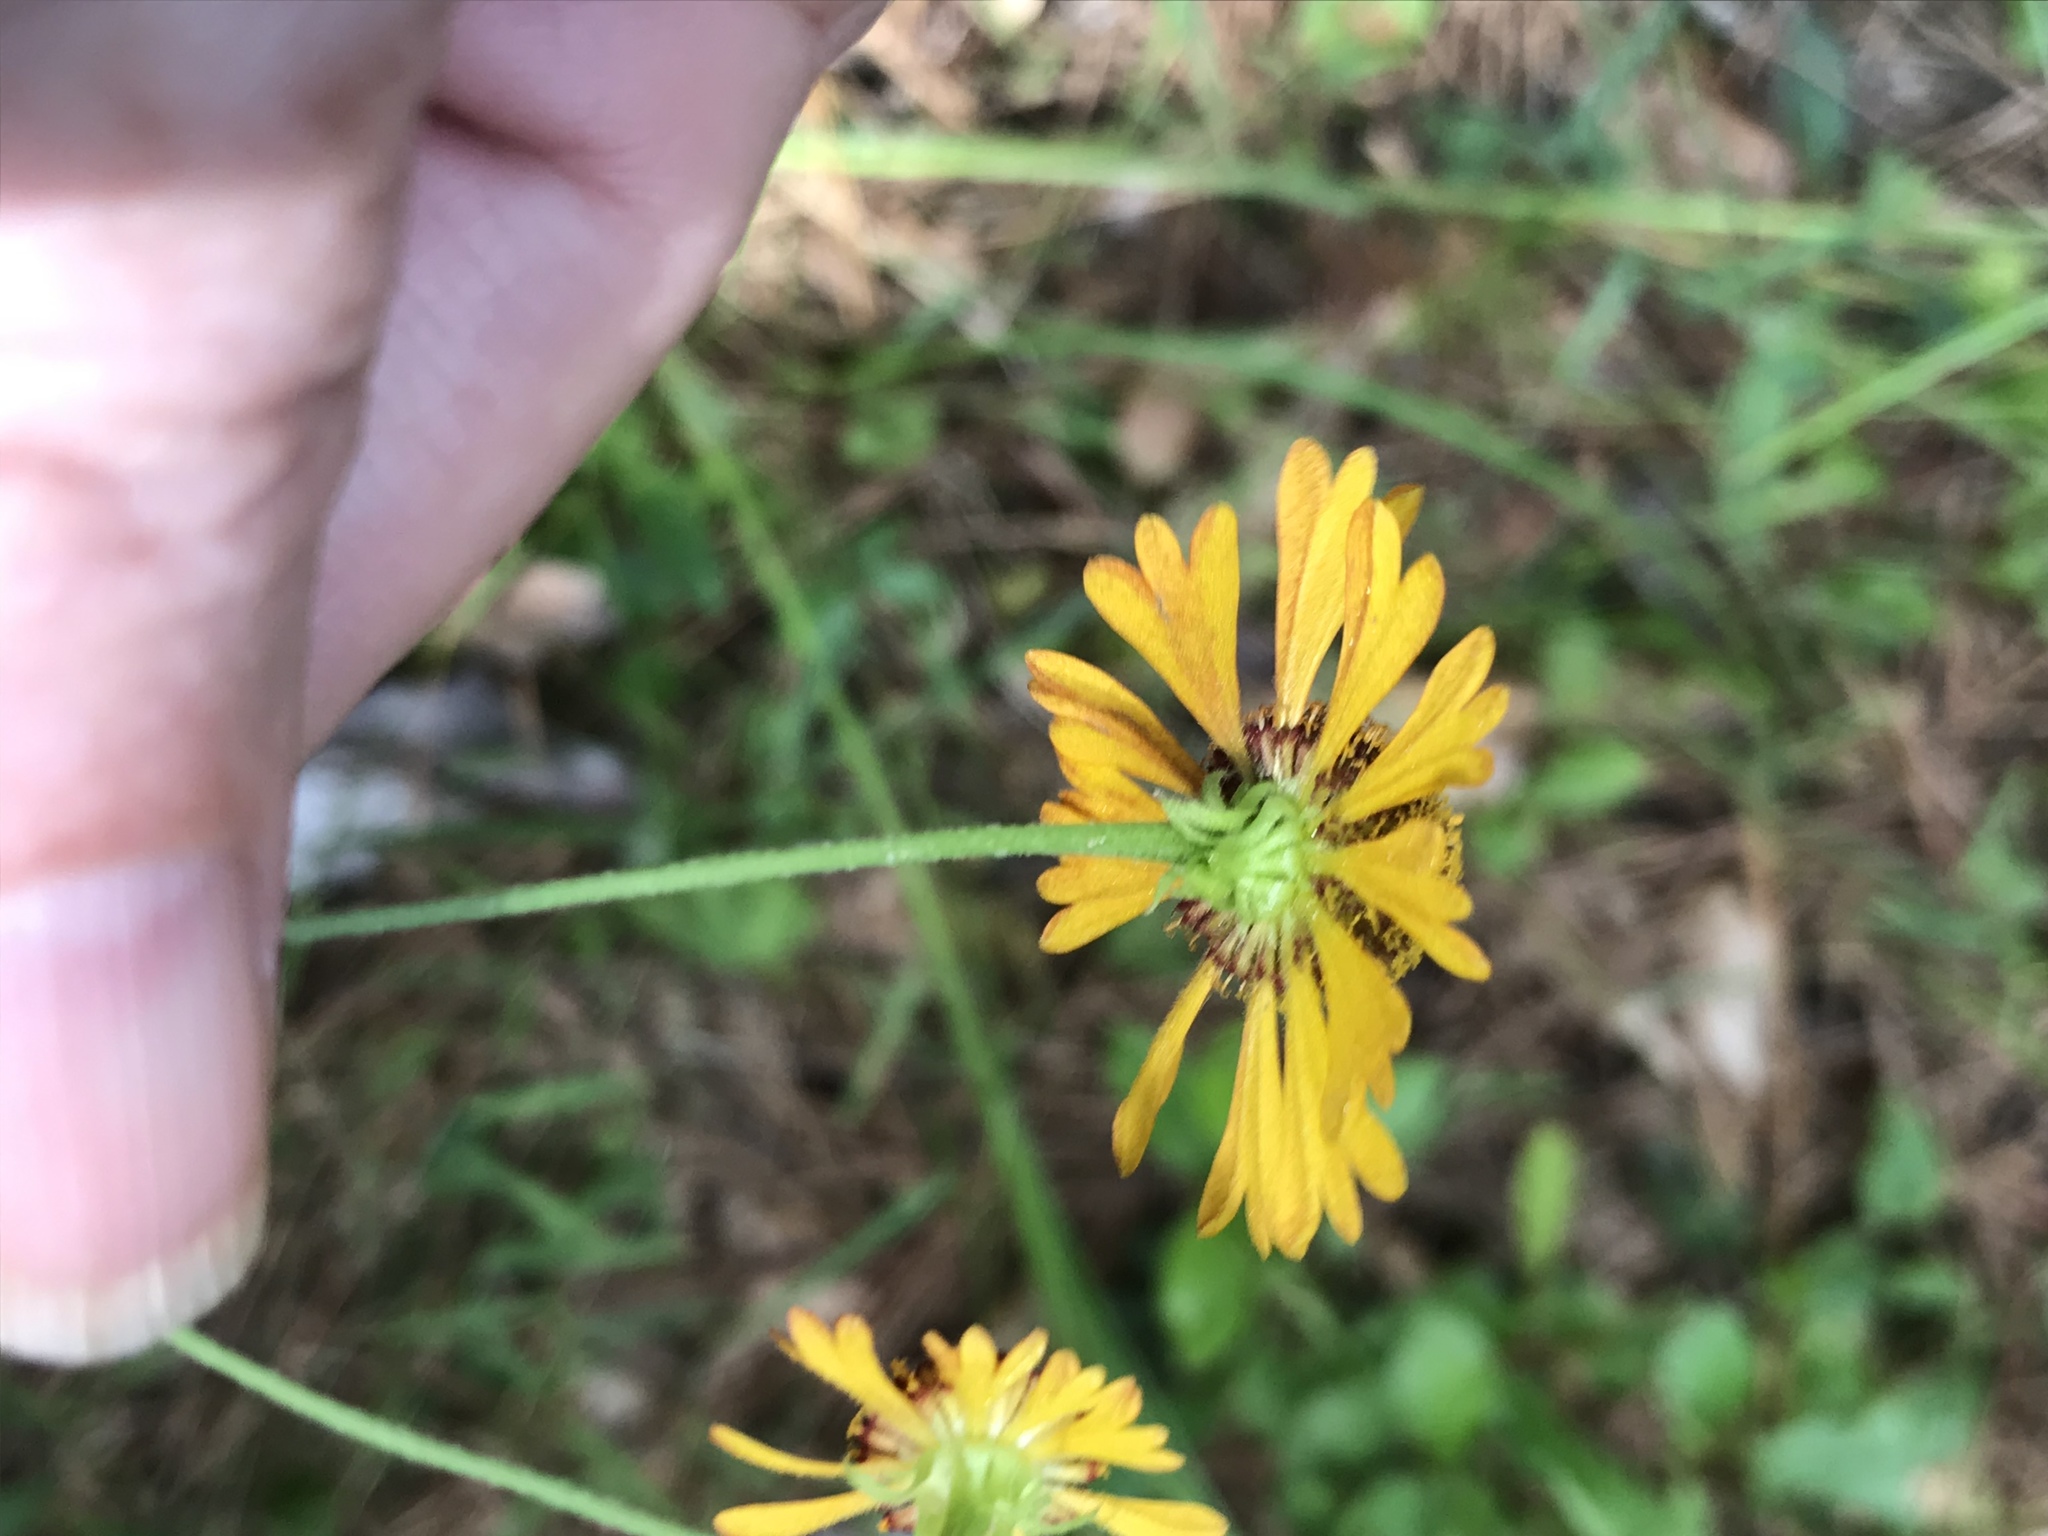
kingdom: Plantae
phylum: Tracheophyta
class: Magnoliopsida
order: Asterales
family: Asteraceae
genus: Helenium
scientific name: Helenium flexuosum
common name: Naked-flowered sneezeweed
